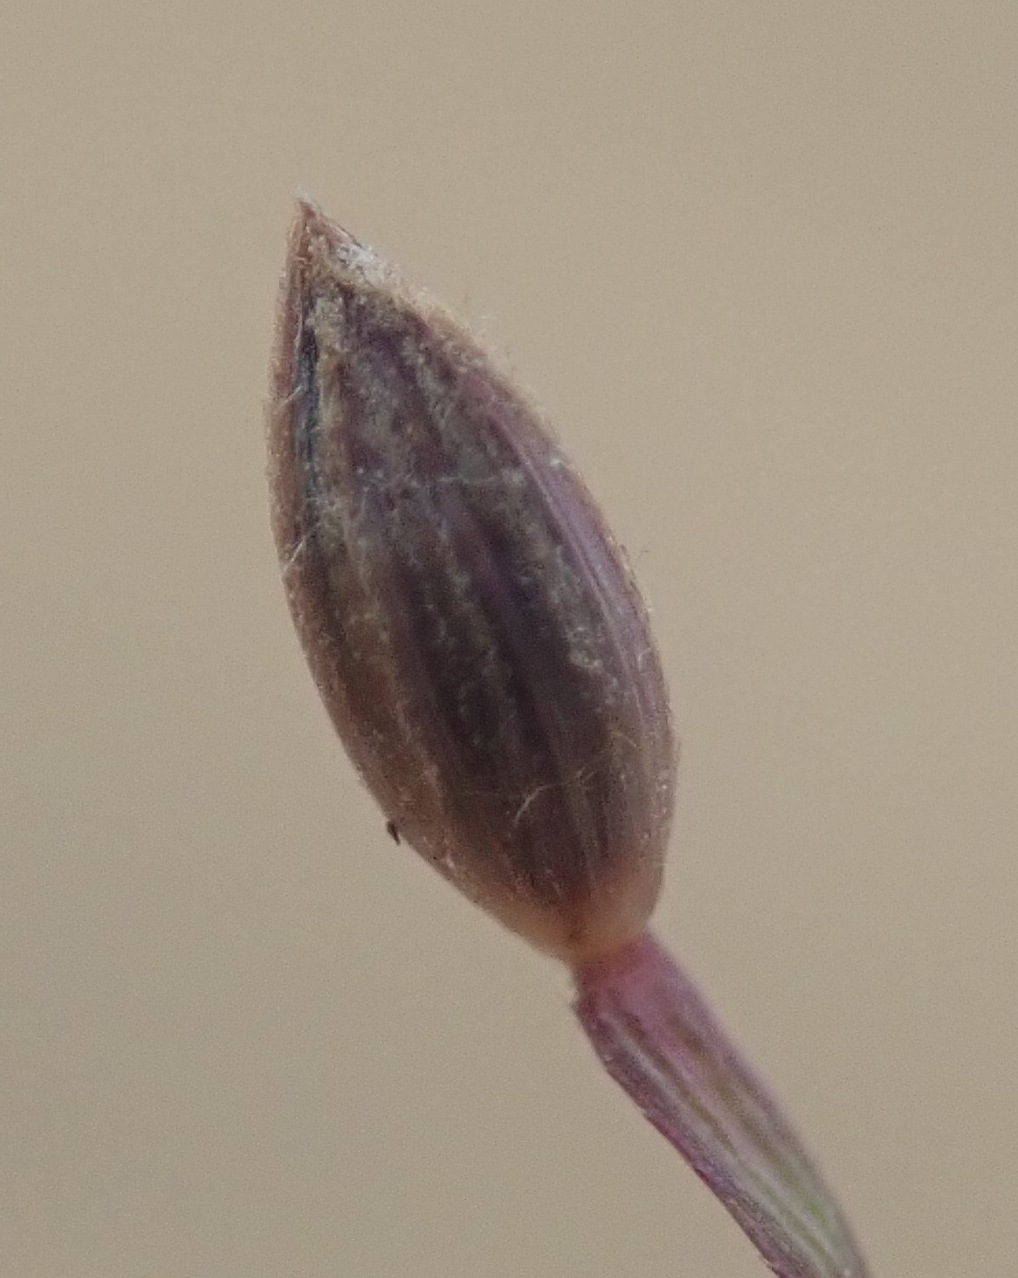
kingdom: Plantae
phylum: Tracheophyta
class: Liliopsida
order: Poales
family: Poaceae
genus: Digitaria
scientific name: Digitaria ischaemum
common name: Smooth crabgrass
